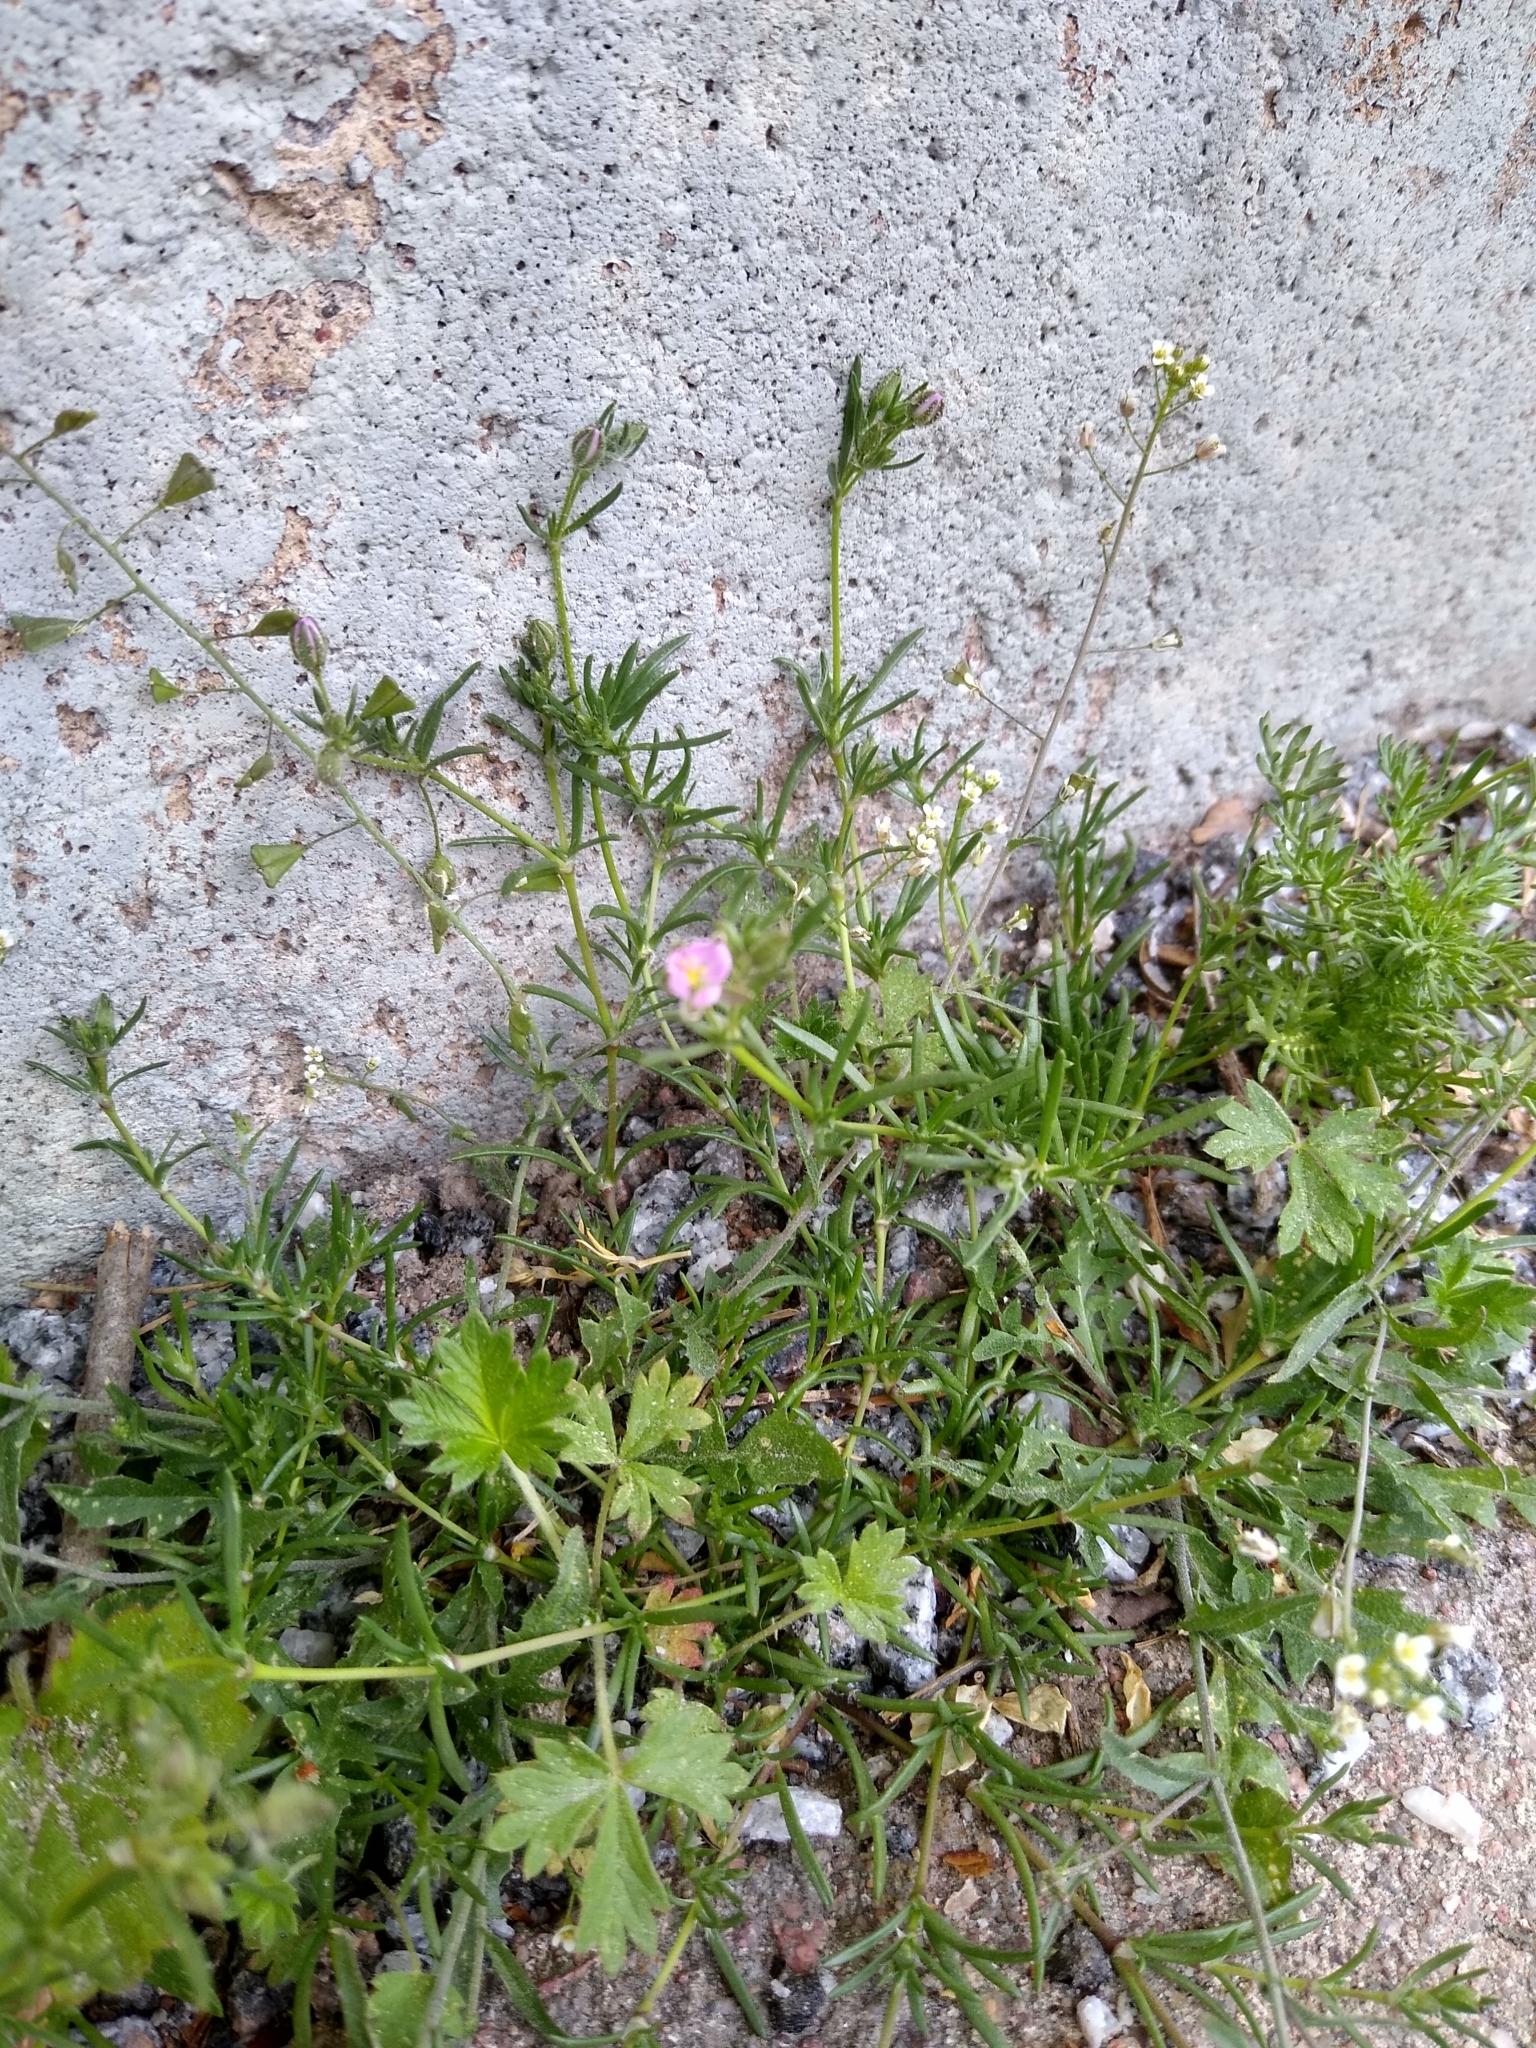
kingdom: Plantae
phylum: Tracheophyta
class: Magnoliopsida
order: Caryophyllales
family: Caryophyllaceae
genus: Spergularia
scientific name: Spergularia rubra
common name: Red sand-spurrey
